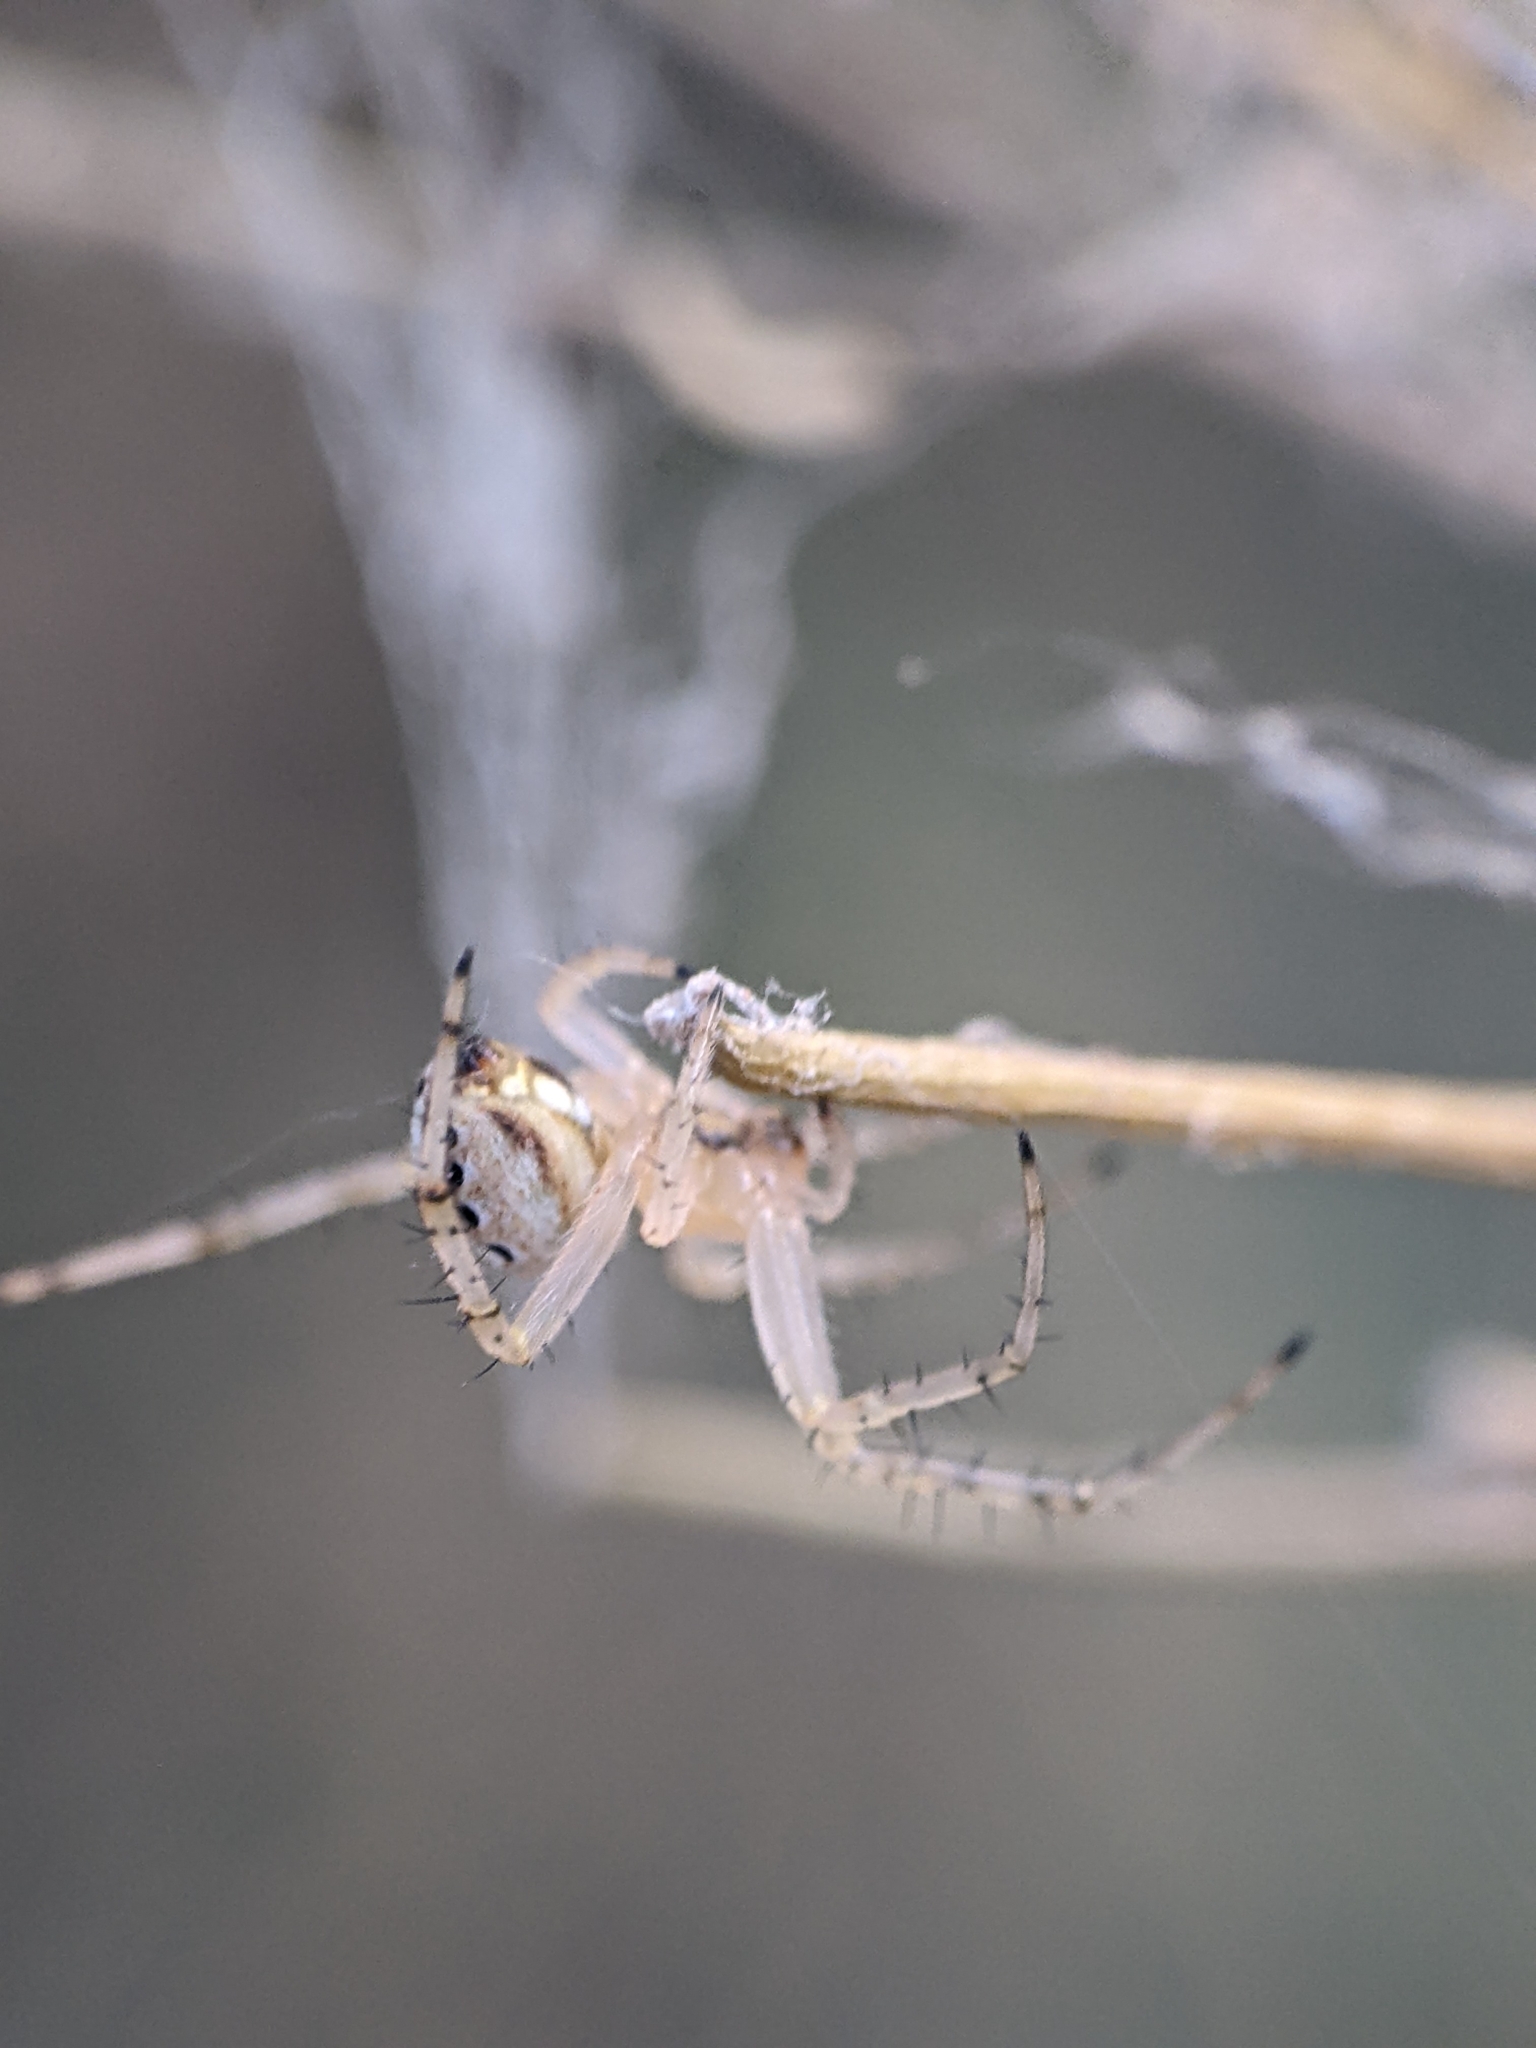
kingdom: Animalia
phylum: Arthropoda
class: Arachnida
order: Araneae
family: Araneidae
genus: Neoscona
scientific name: Neoscona oaxacensis
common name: Orb weavers
